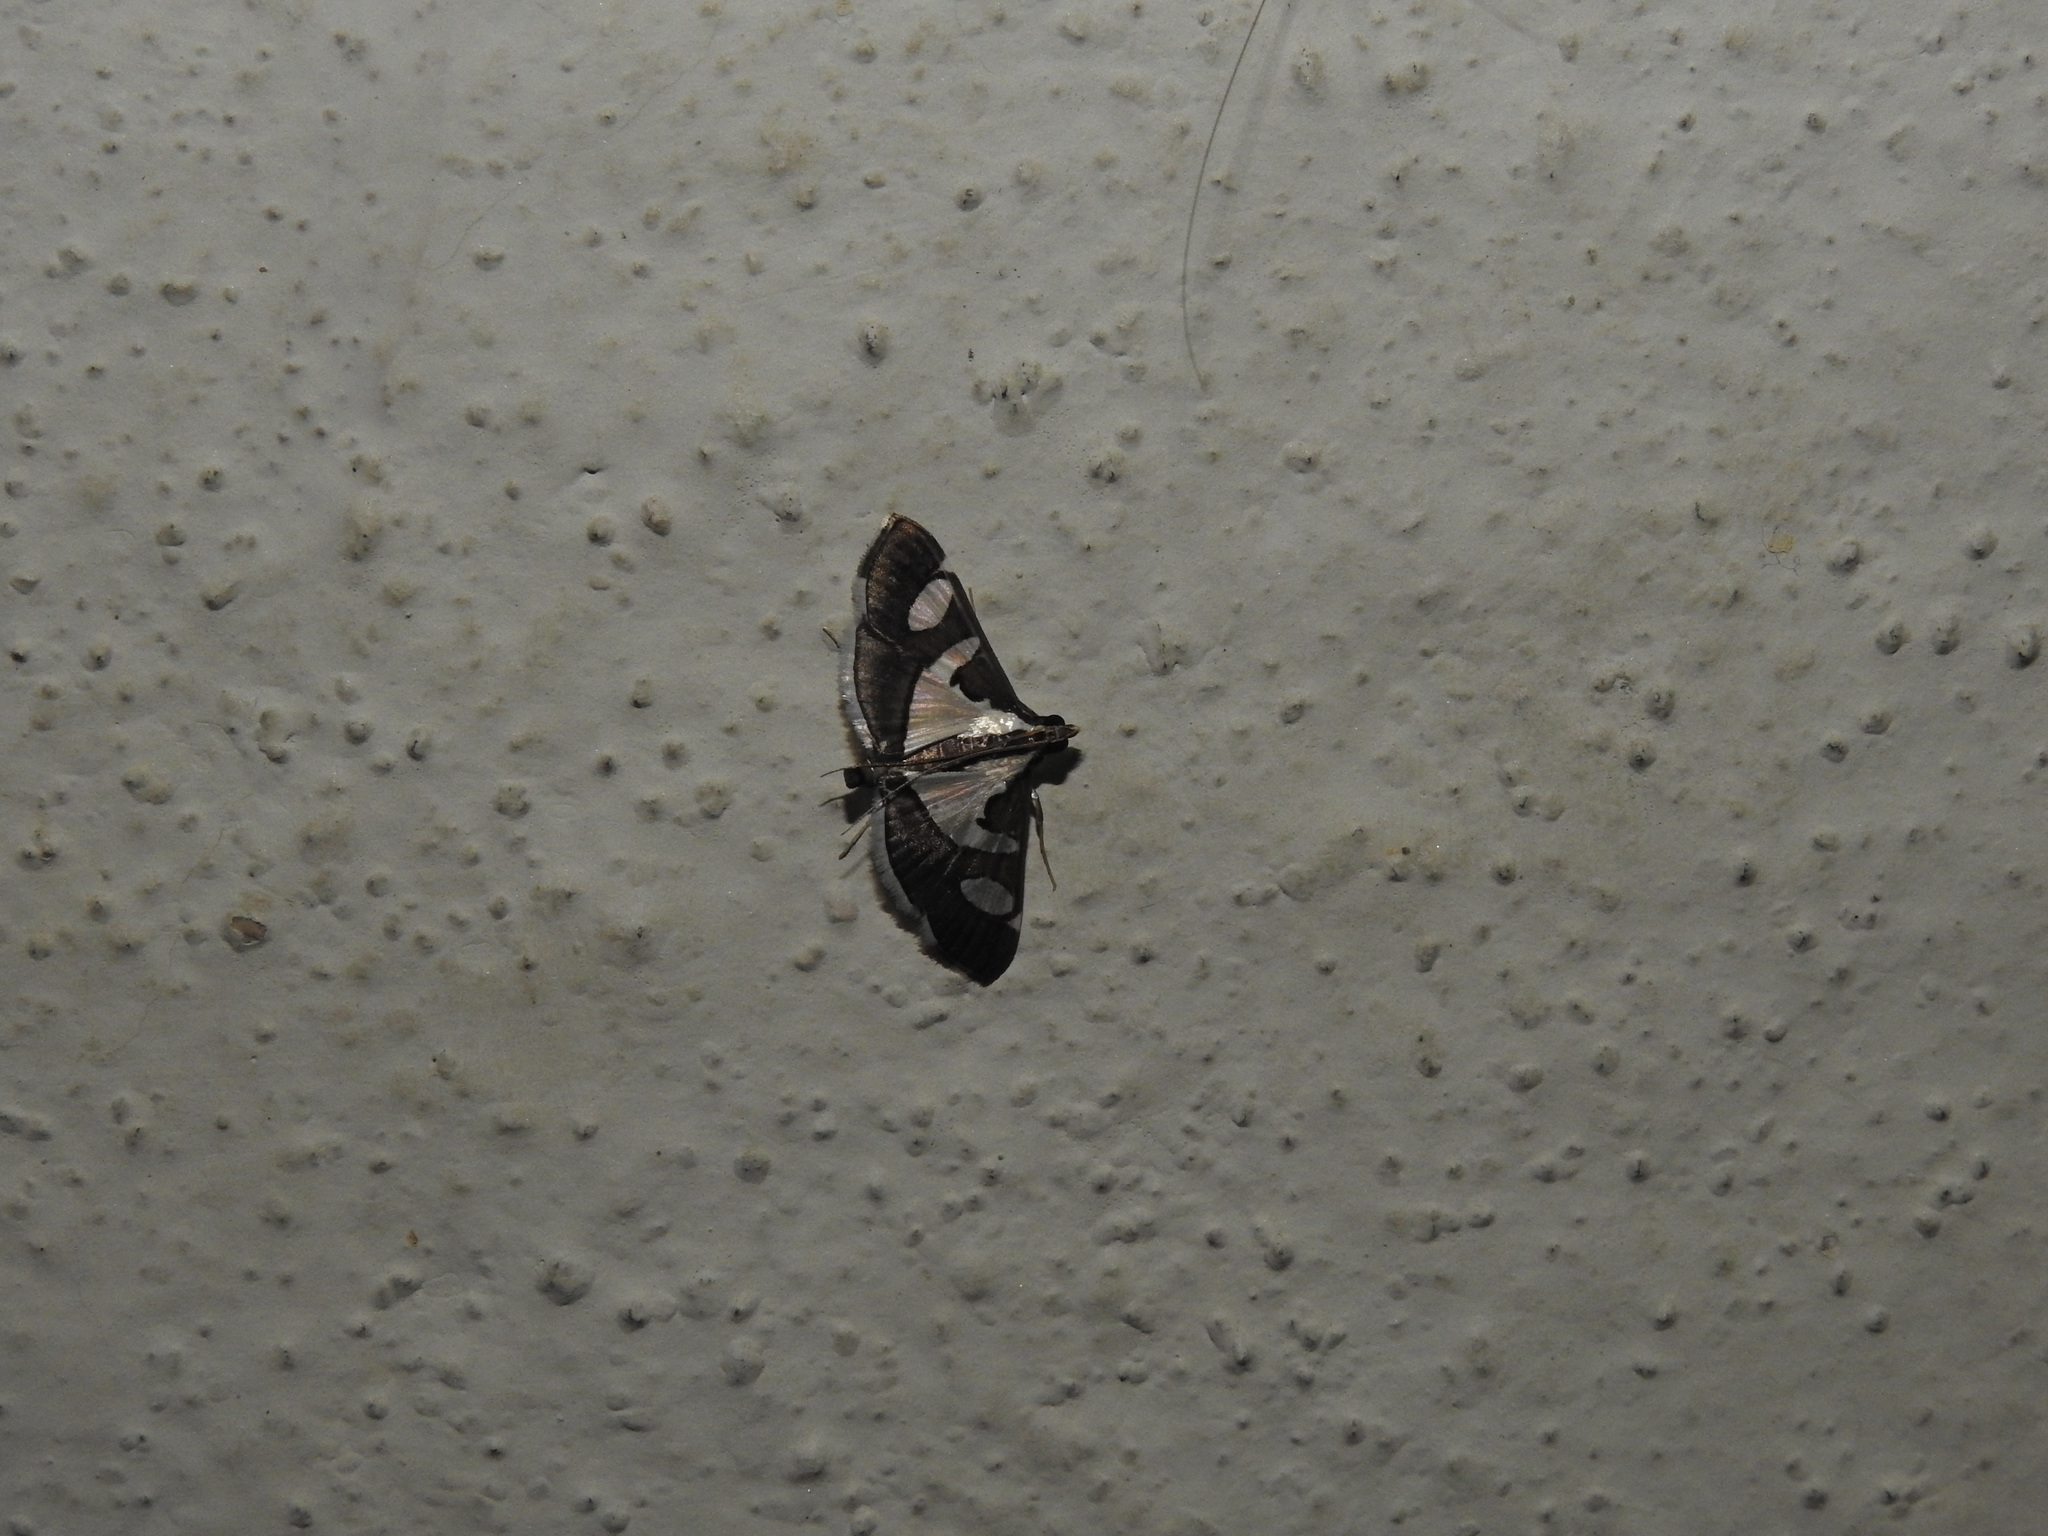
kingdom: Animalia
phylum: Arthropoda
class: Insecta
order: Lepidoptera
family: Crambidae
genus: Glyphodes
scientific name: Glyphodes bicolor
